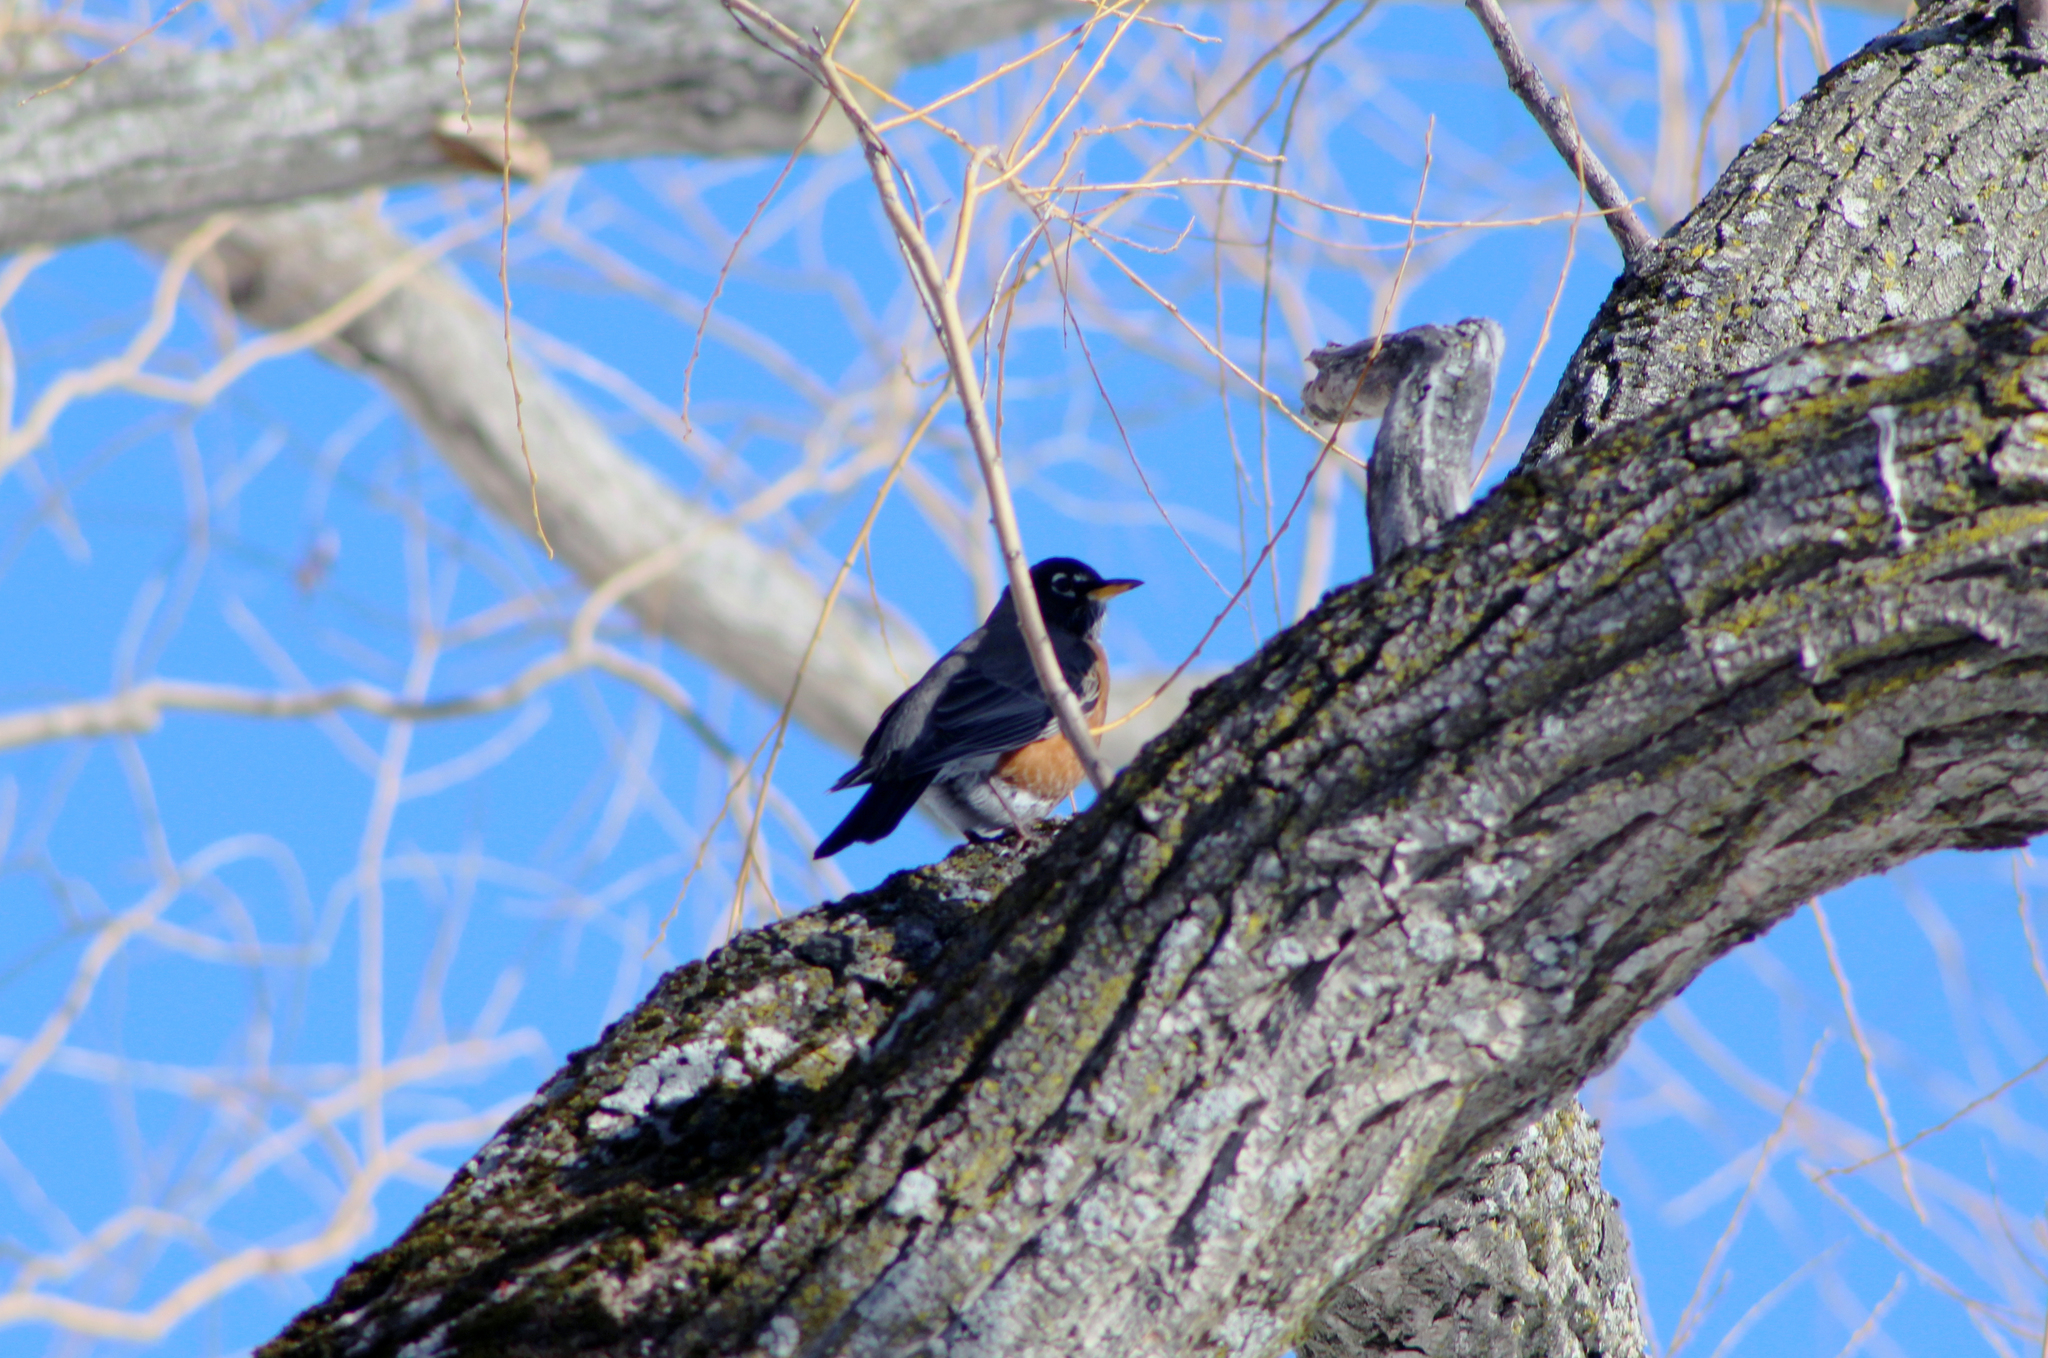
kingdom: Animalia
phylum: Chordata
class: Aves
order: Passeriformes
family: Turdidae
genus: Turdus
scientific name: Turdus migratorius
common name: American robin
